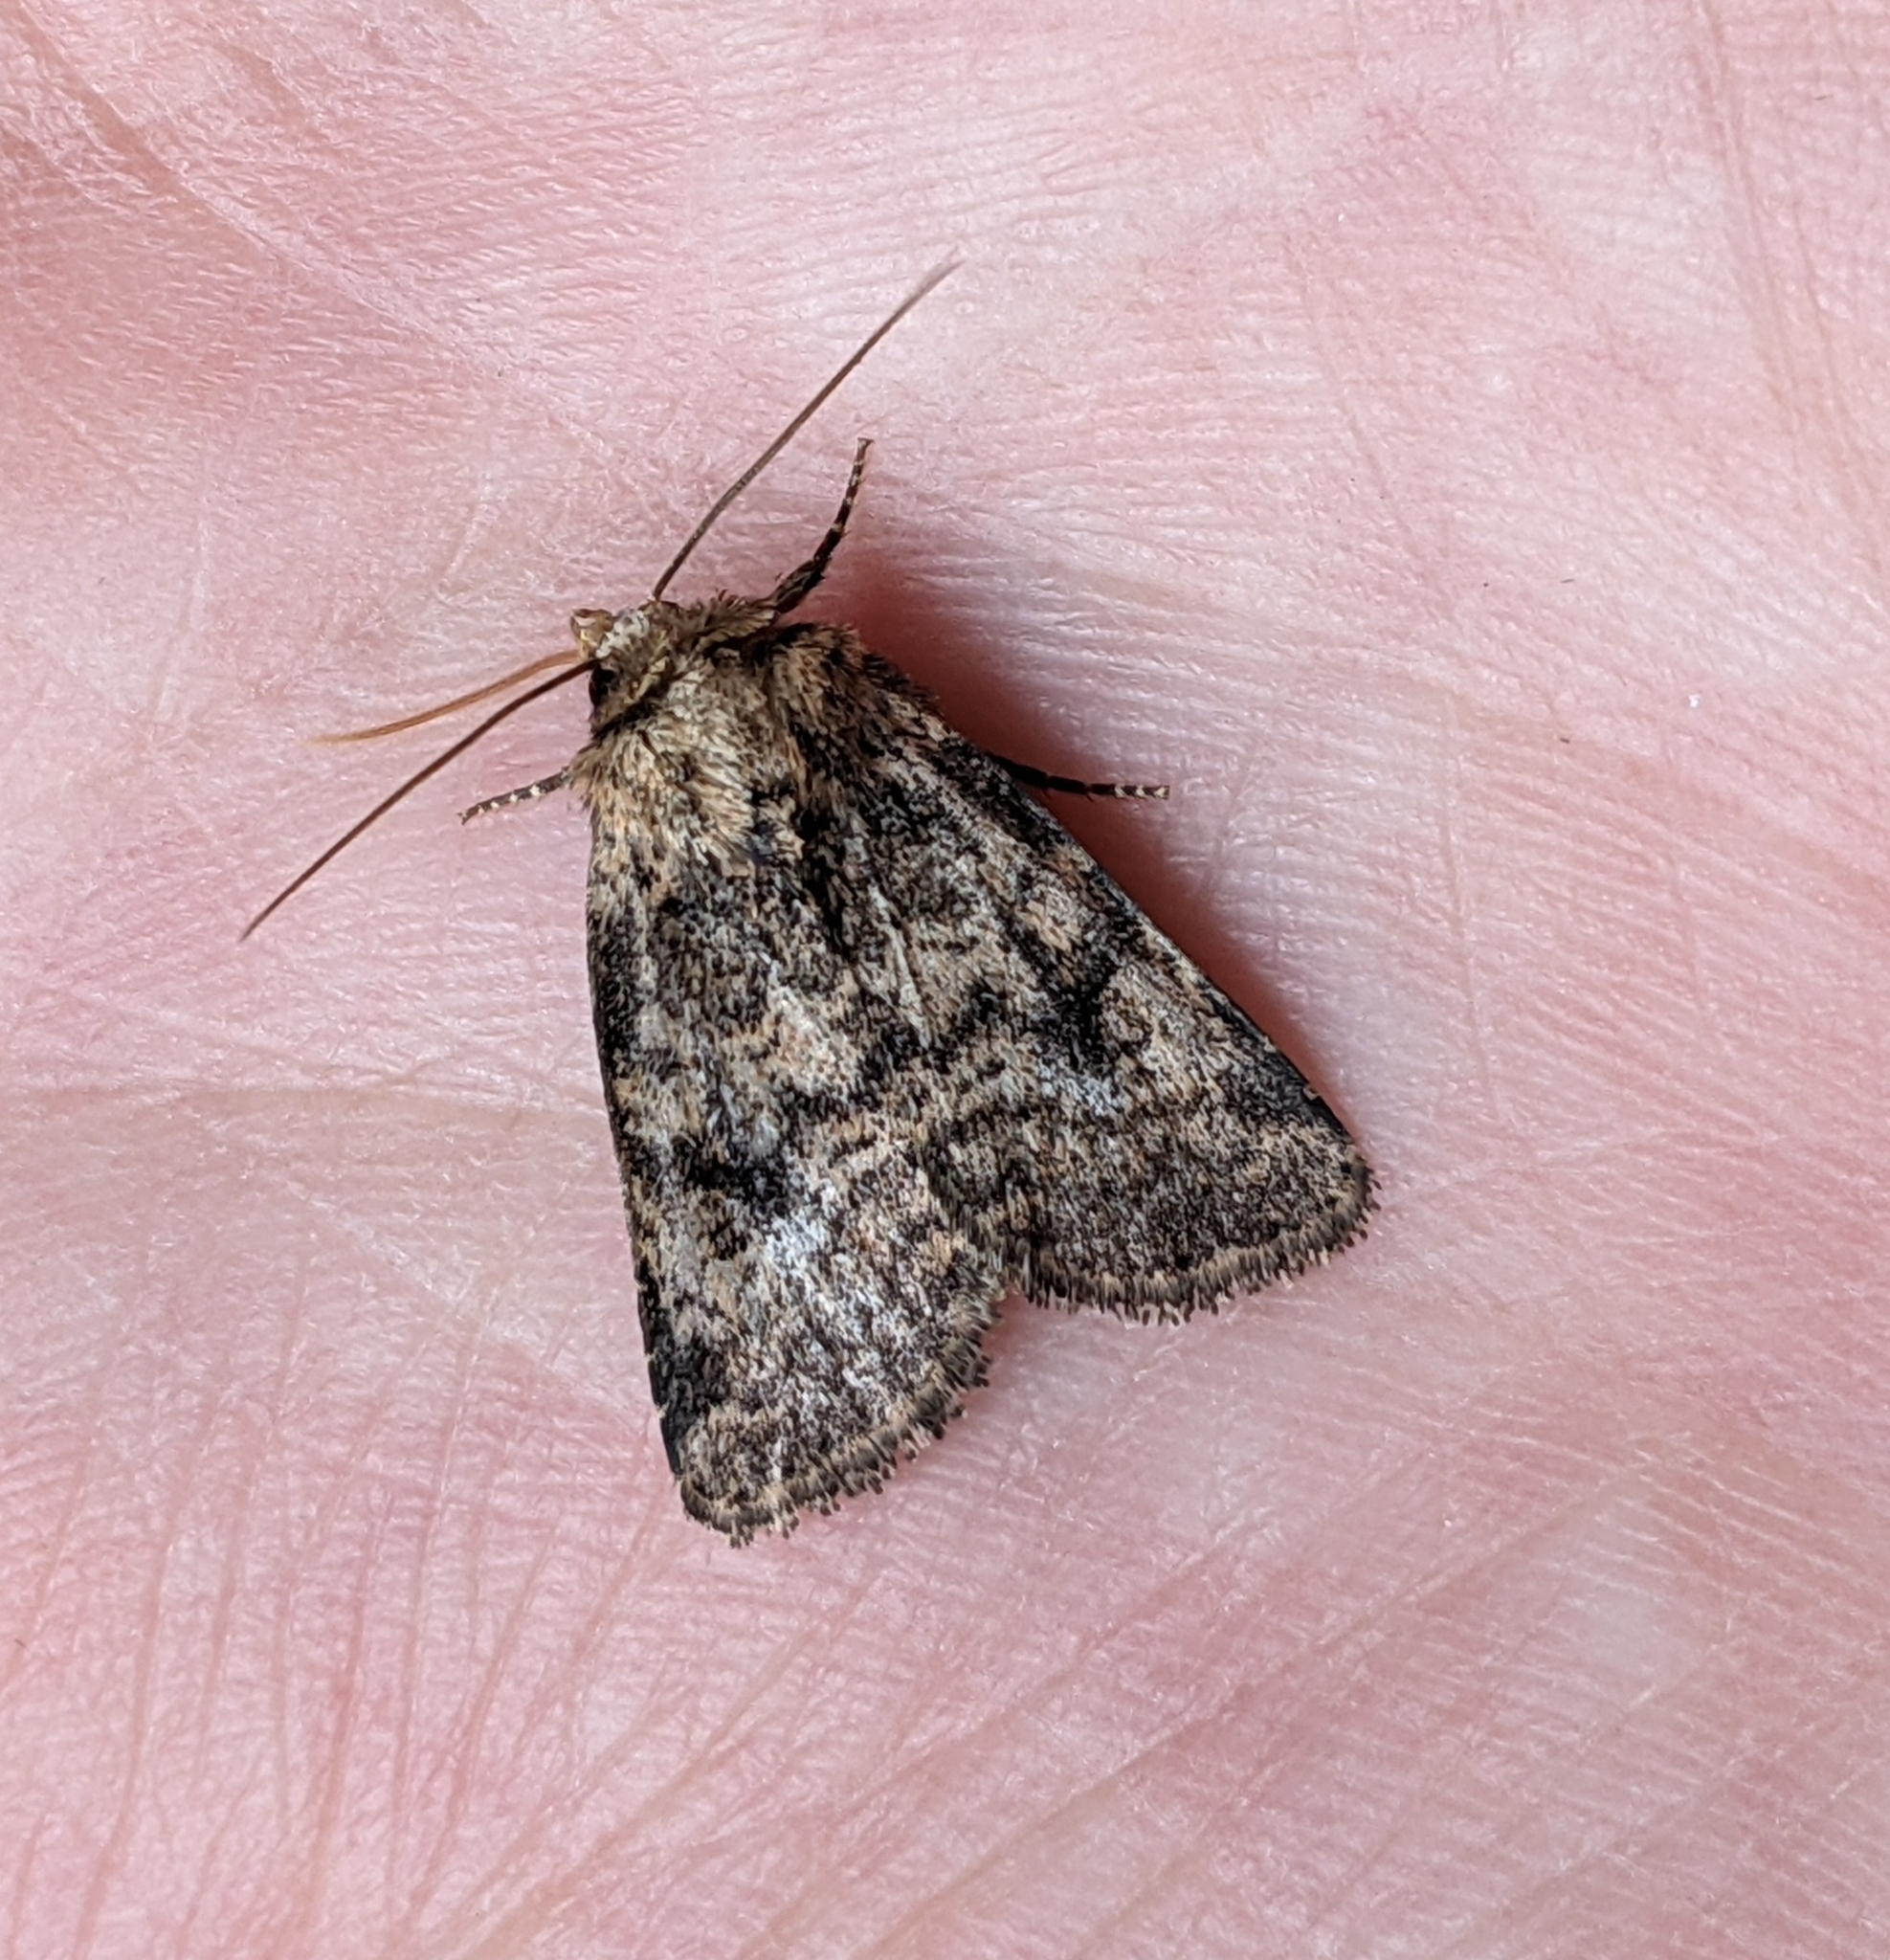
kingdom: Animalia
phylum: Arthropoda
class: Insecta
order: Lepidoptera
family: Noctuidae
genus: Homorthodes
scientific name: Homorthodes hanhami
